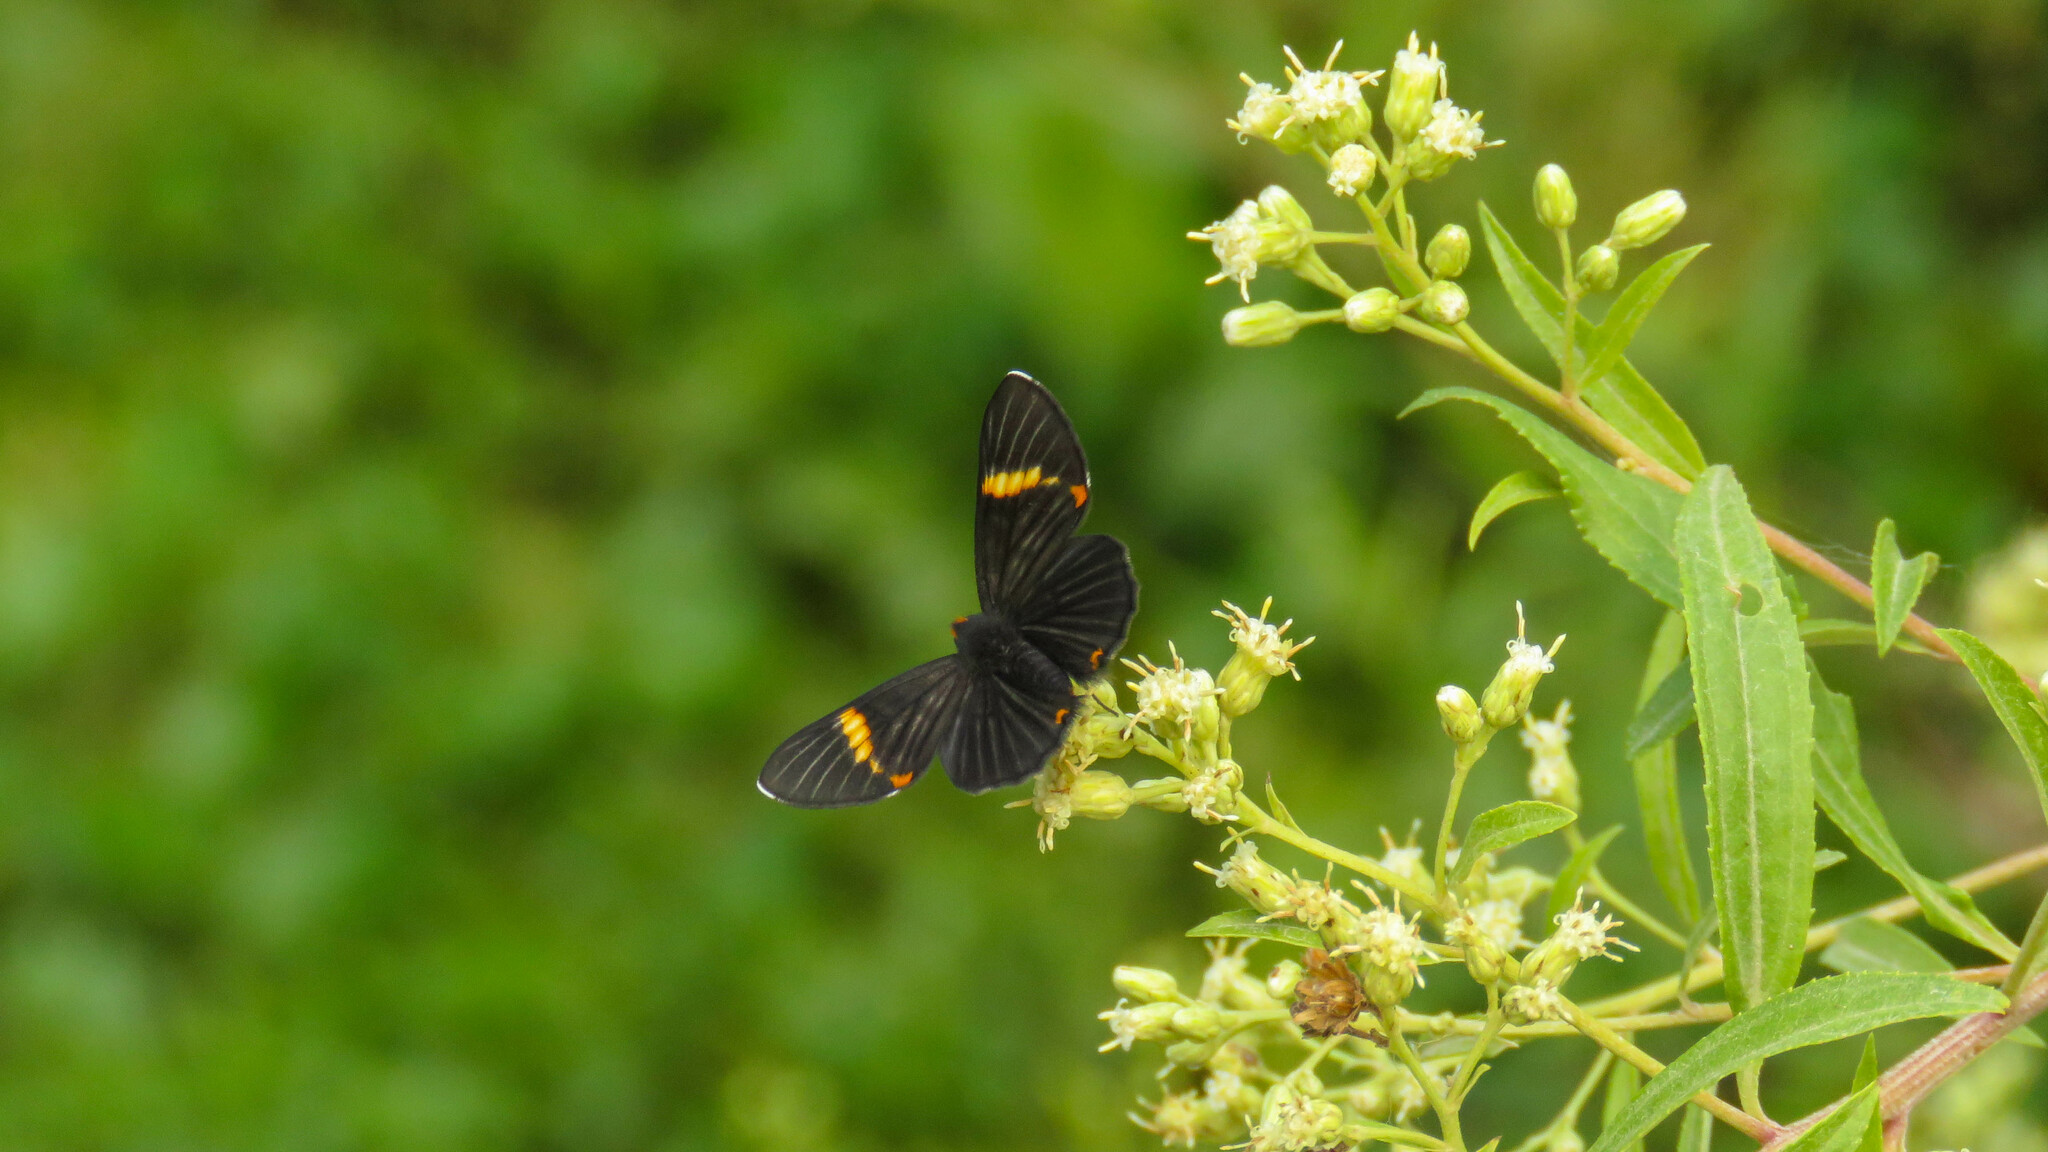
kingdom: Animalia
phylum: Arthropoda
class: Insecta
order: Lepidoptera
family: Riodinidae
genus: Riodina
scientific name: Riodina lycisca
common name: Lycisca metalmark
